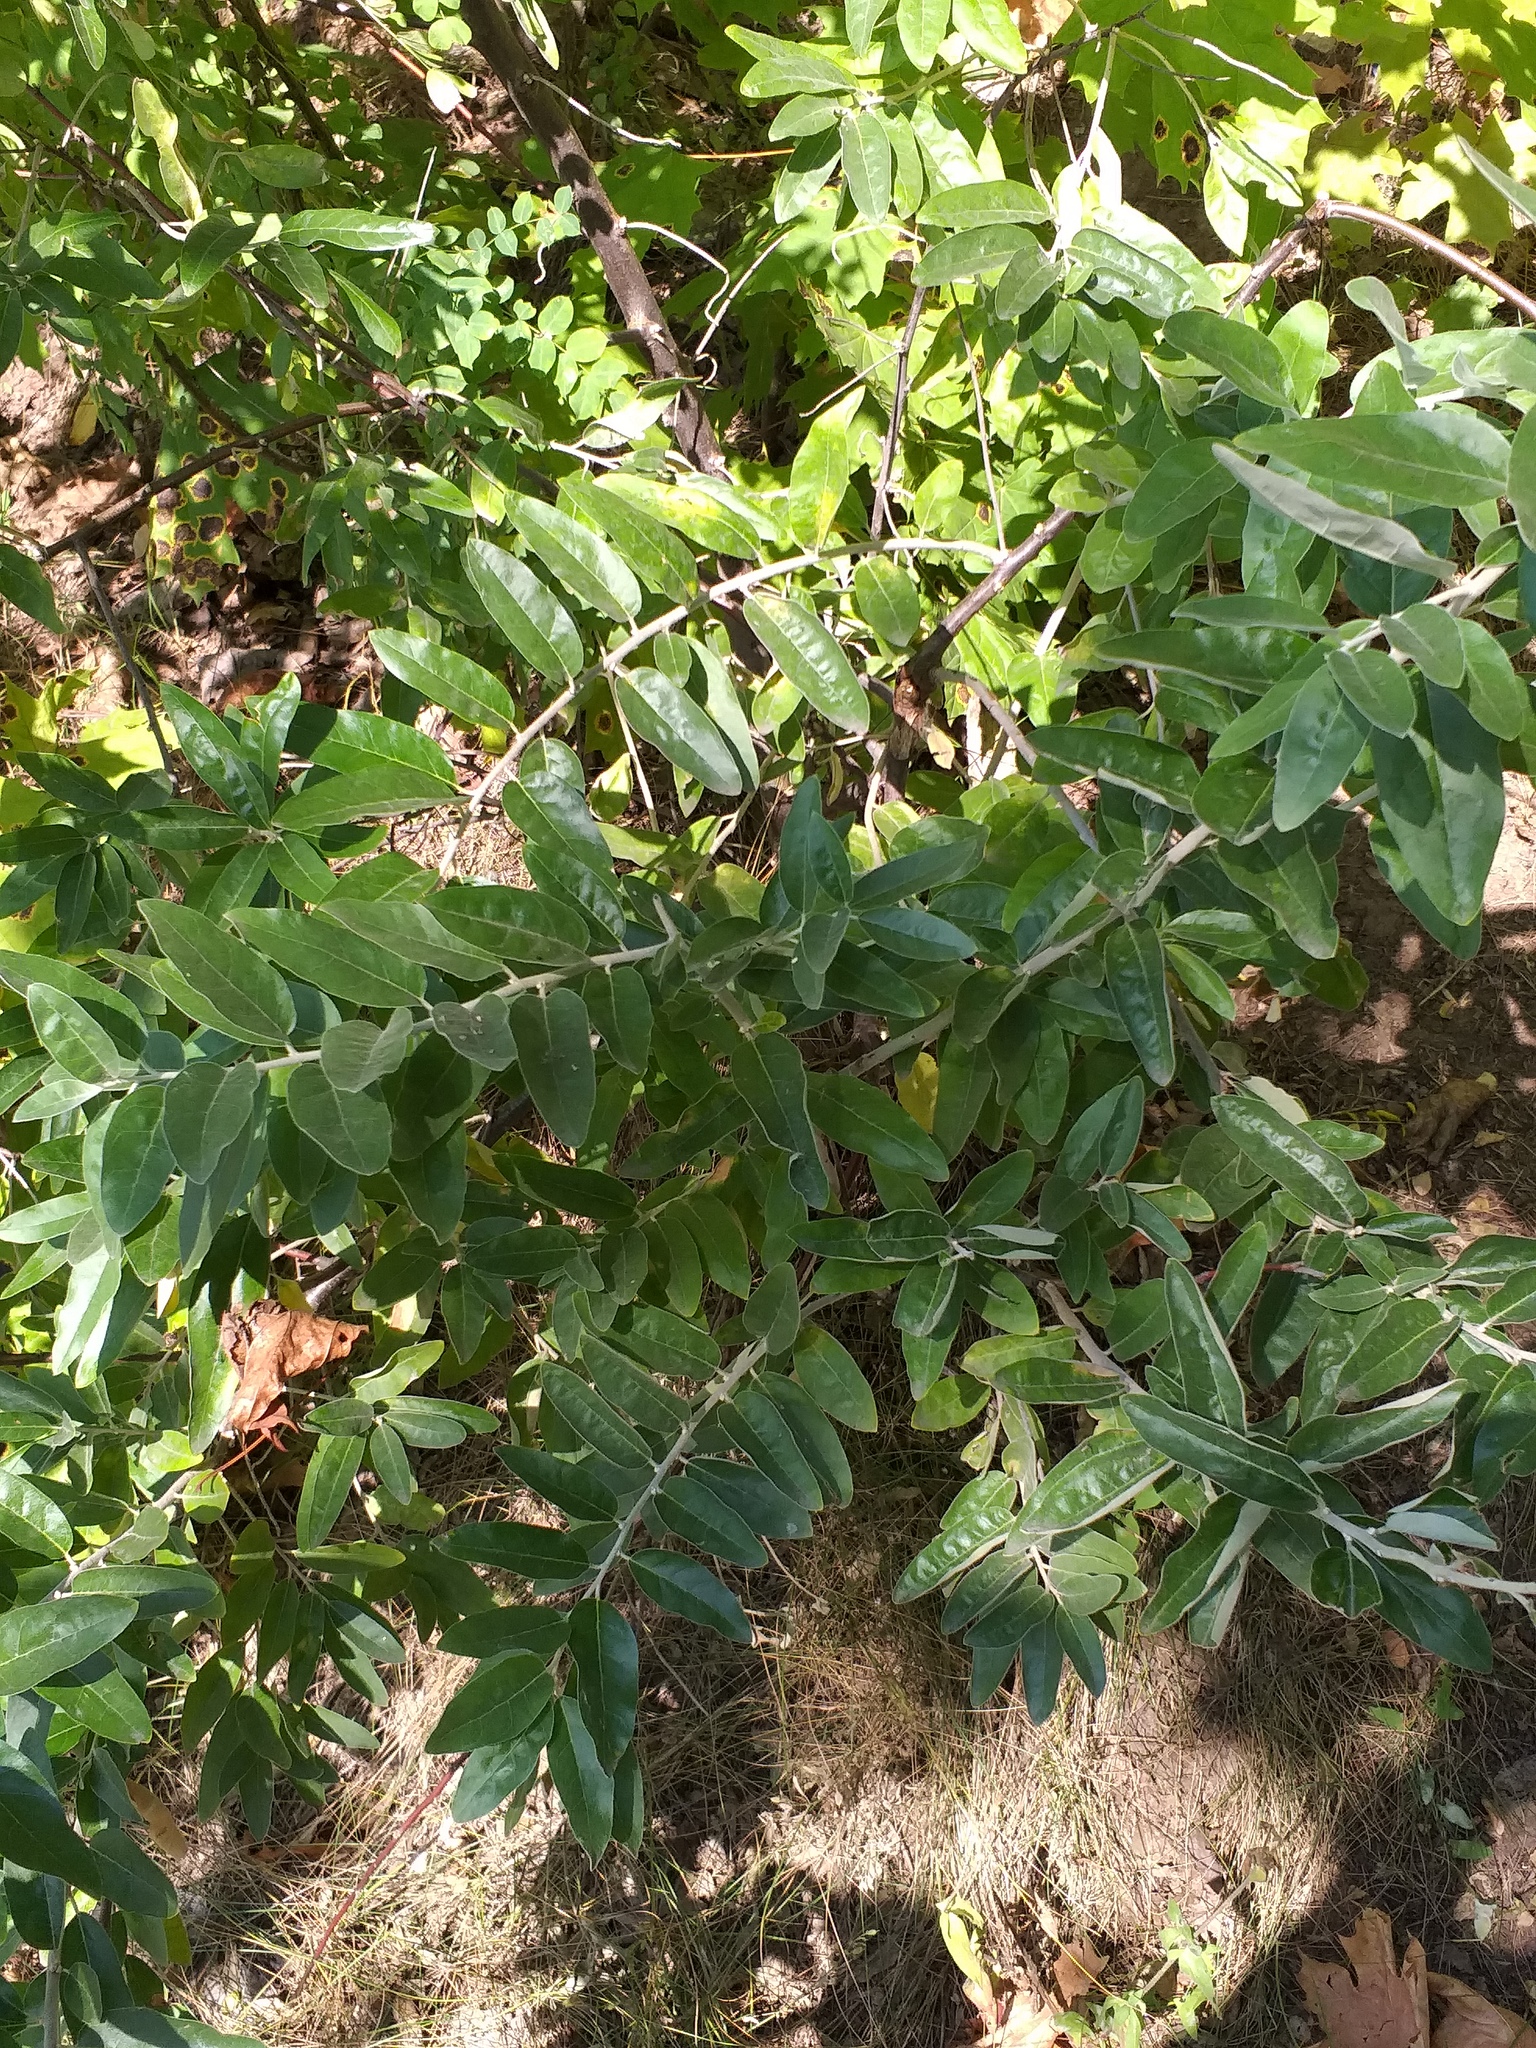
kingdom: Plantae
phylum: Tracheophyta
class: Magnoliopsida
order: Rosales
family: Elaeagnaceae
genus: Elaeagnus
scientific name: Elaeagnus angustifolia
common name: Russian olive
